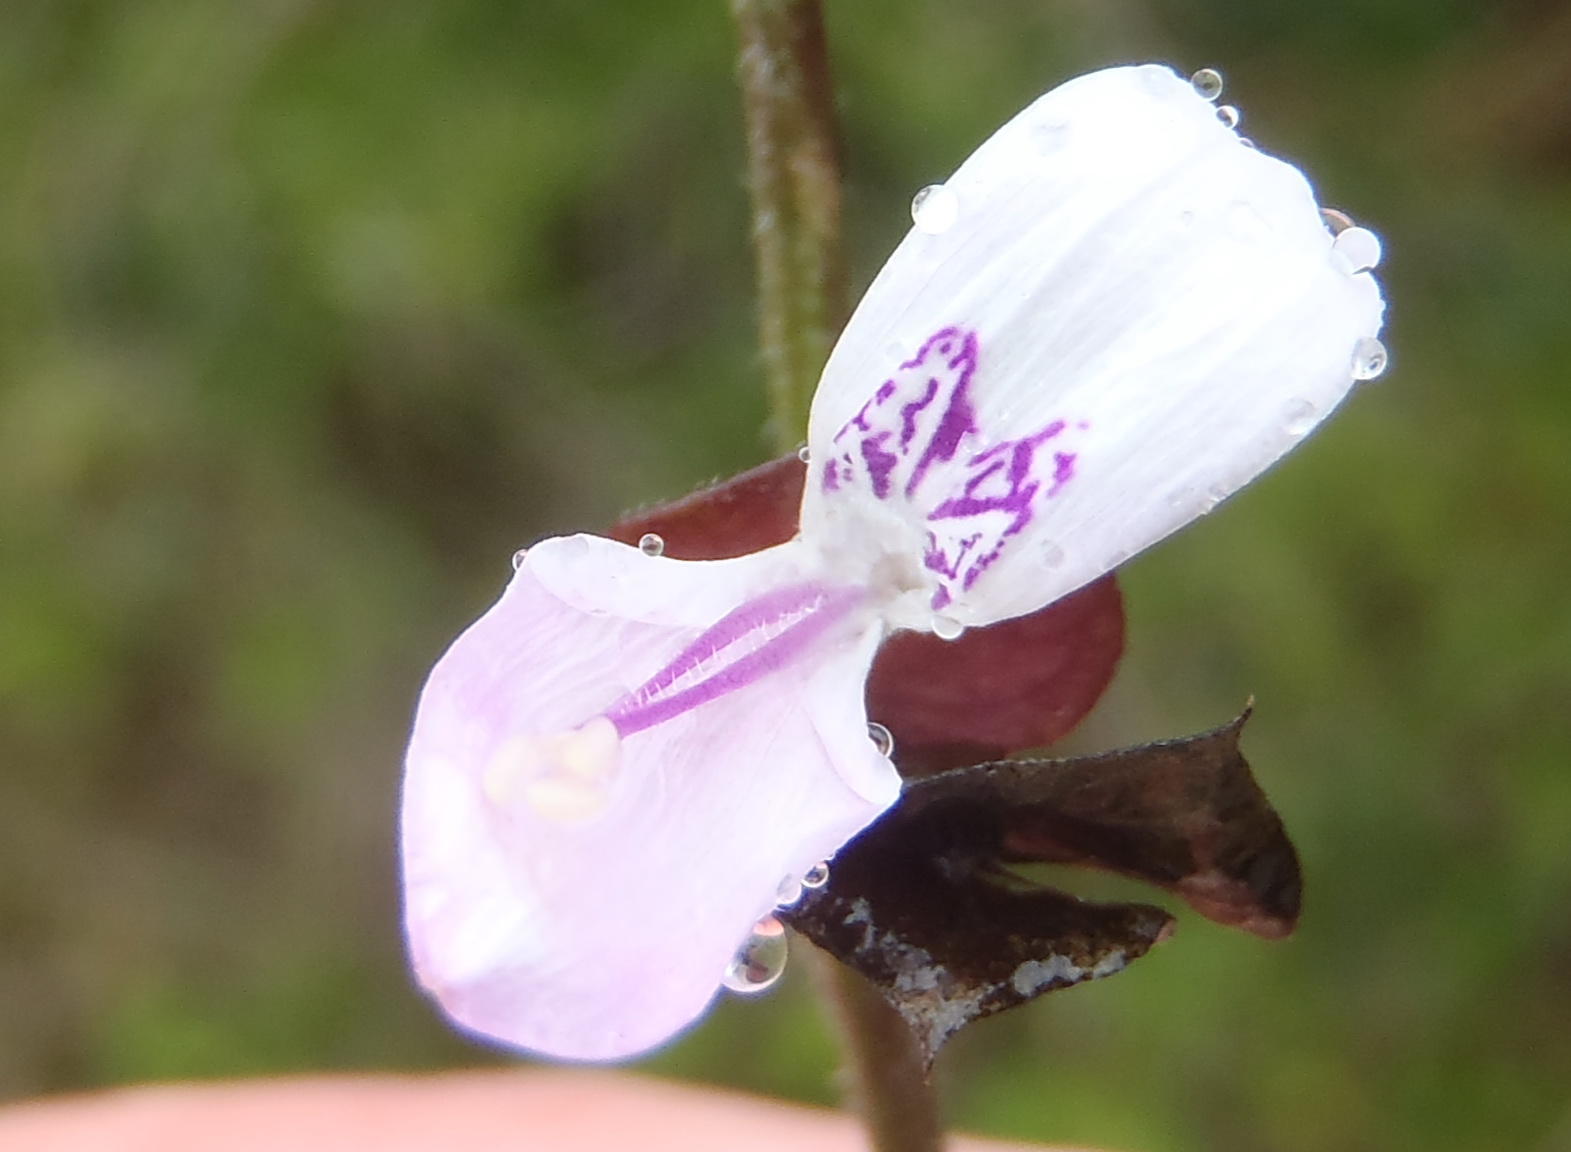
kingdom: Plantae
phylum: Tracheophyta
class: Magnoliopsida
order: Lamiales
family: Acanthaceae
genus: Dicliptera
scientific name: Dicliptera extenta
